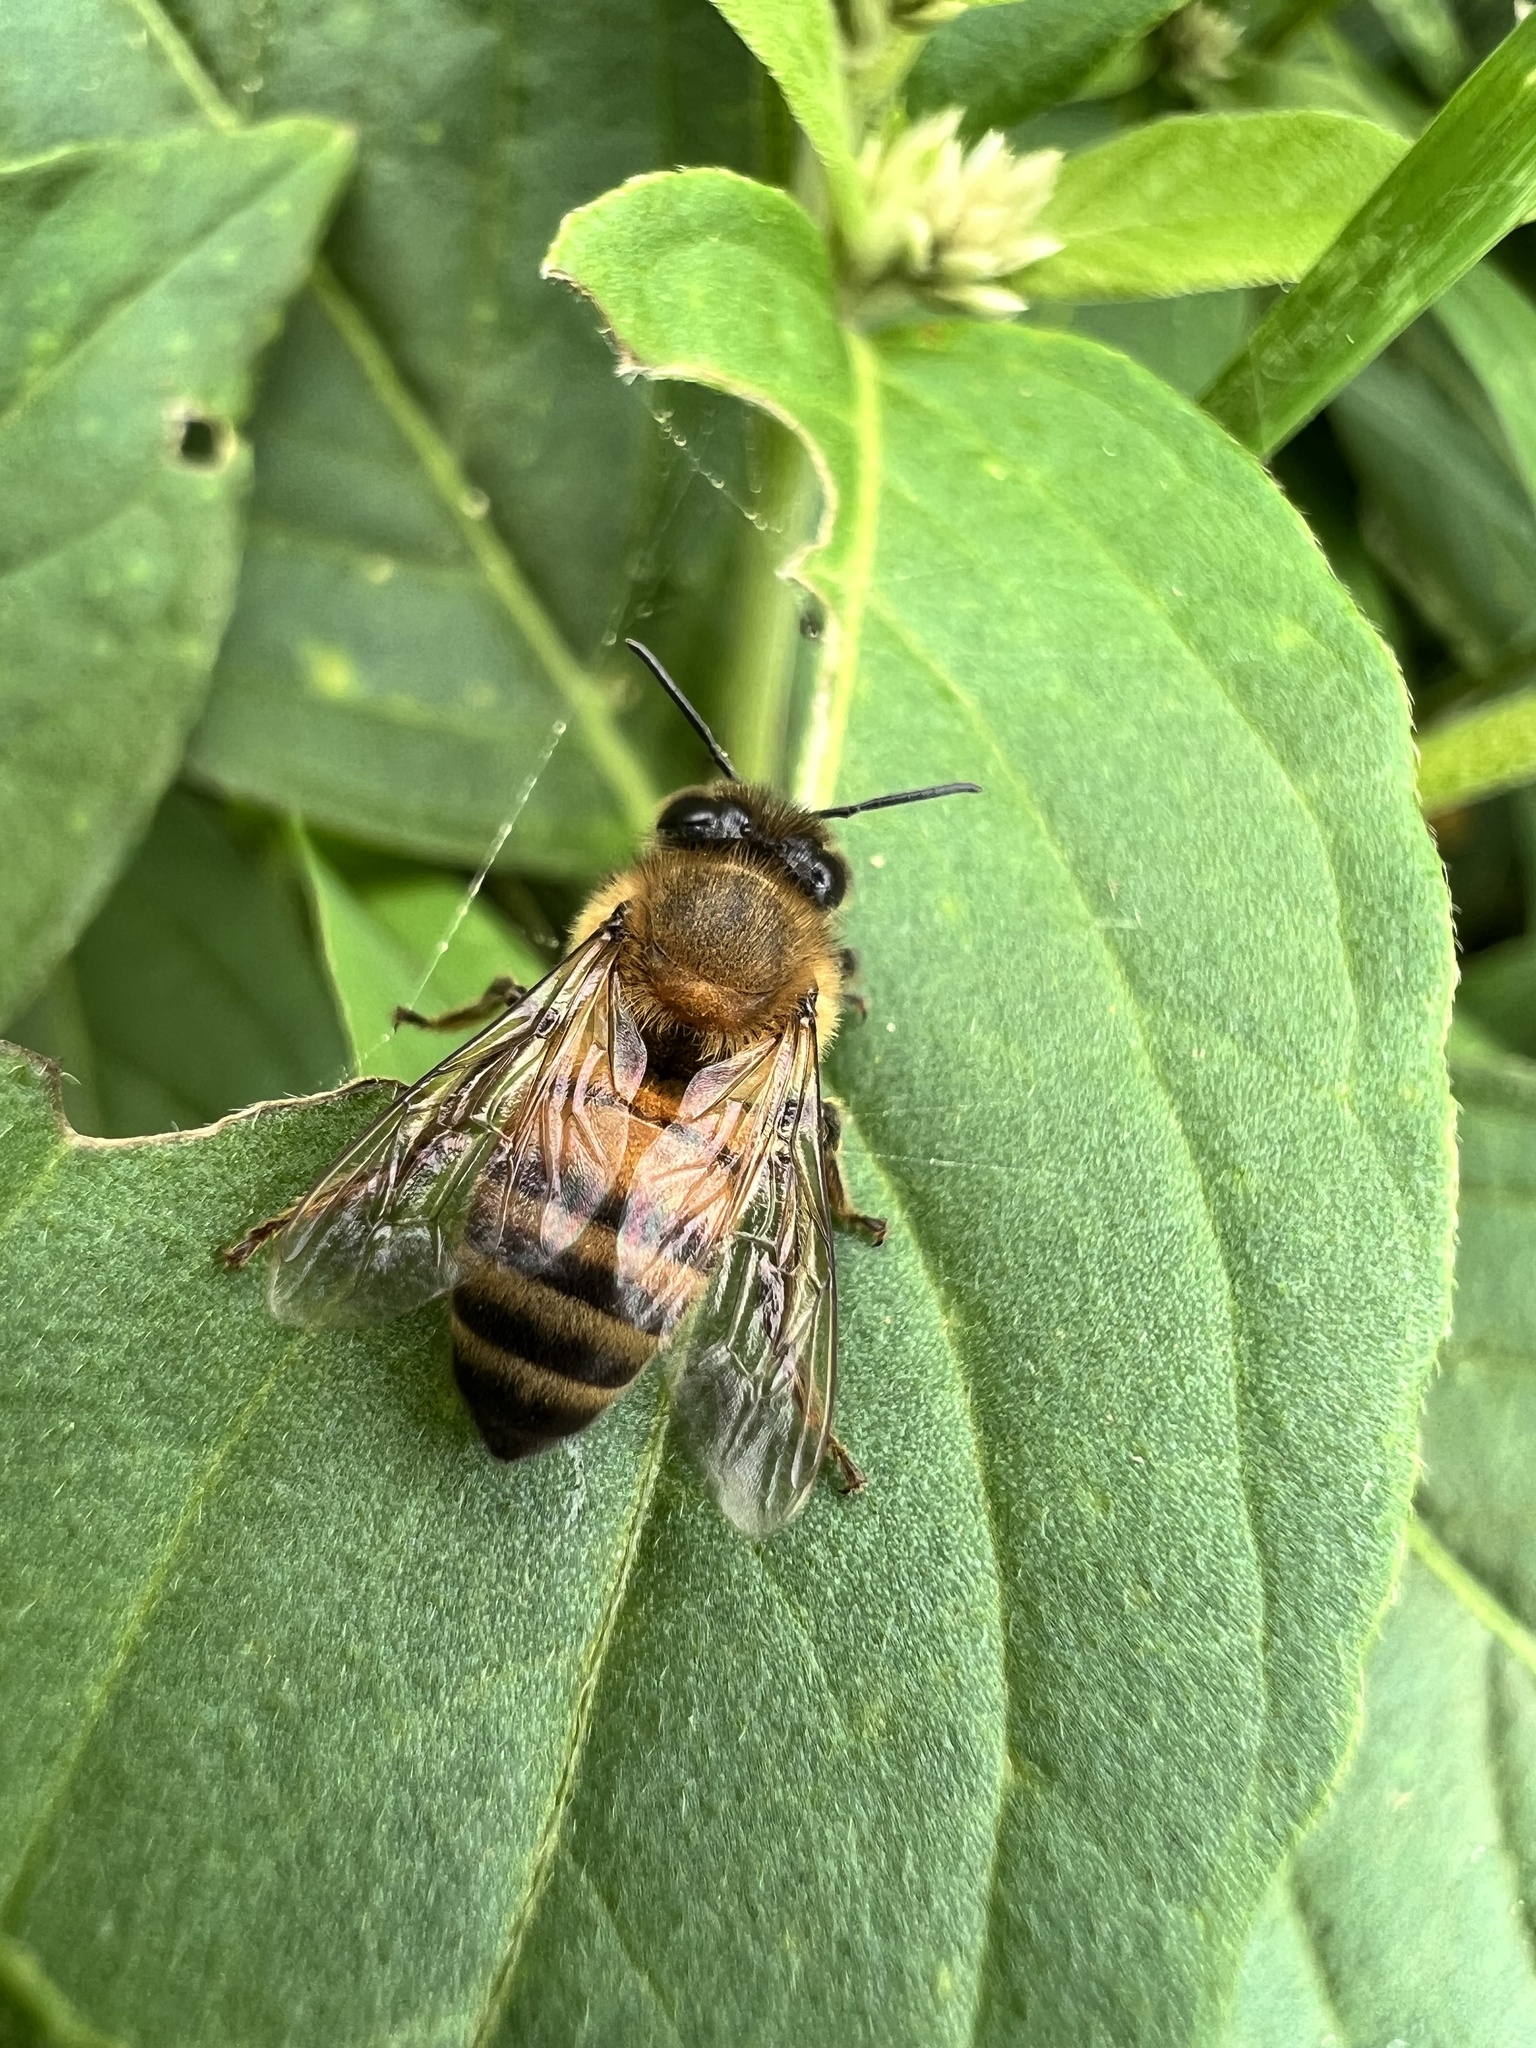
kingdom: Animalia
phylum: Arthropoda
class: Insecta
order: Hymenoptera
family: Apidae
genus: Apis
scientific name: Apis mellifera
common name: Honey bee
